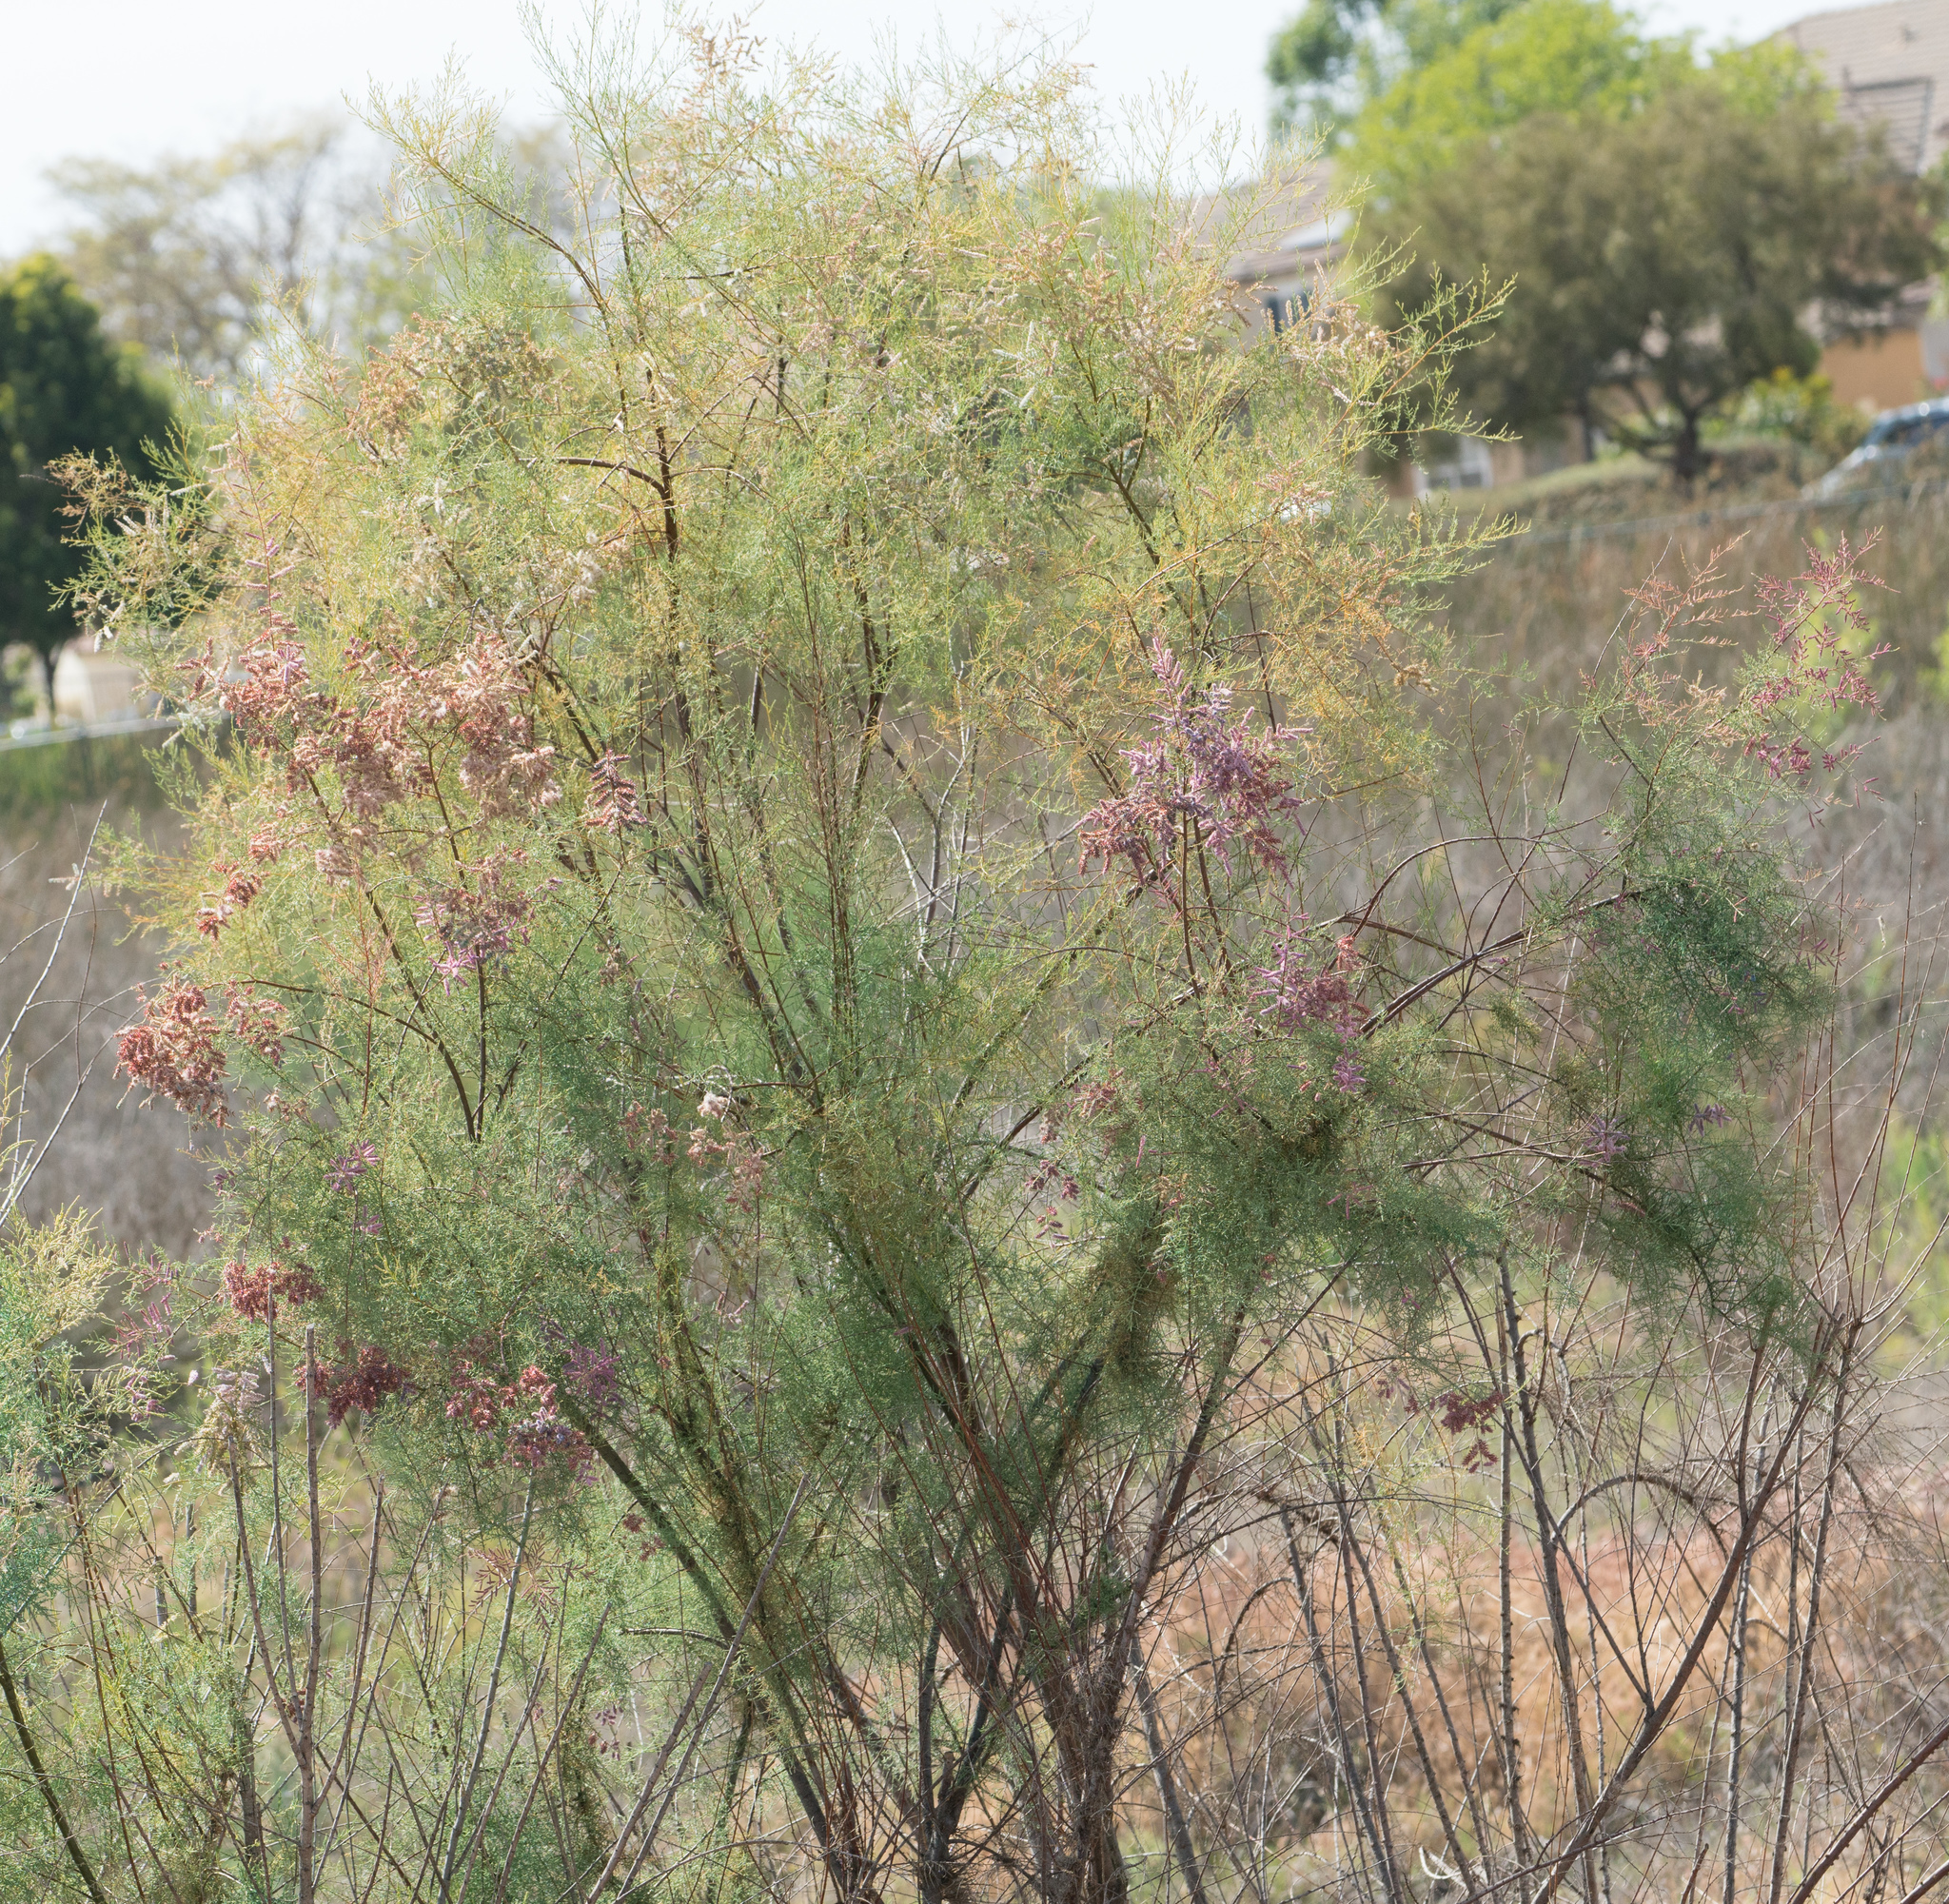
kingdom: Plantae
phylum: Tracheophyta
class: Magnoliopsida
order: Caryophyllales
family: Tamaricaceae
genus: Tamarix
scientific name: Tamarix
